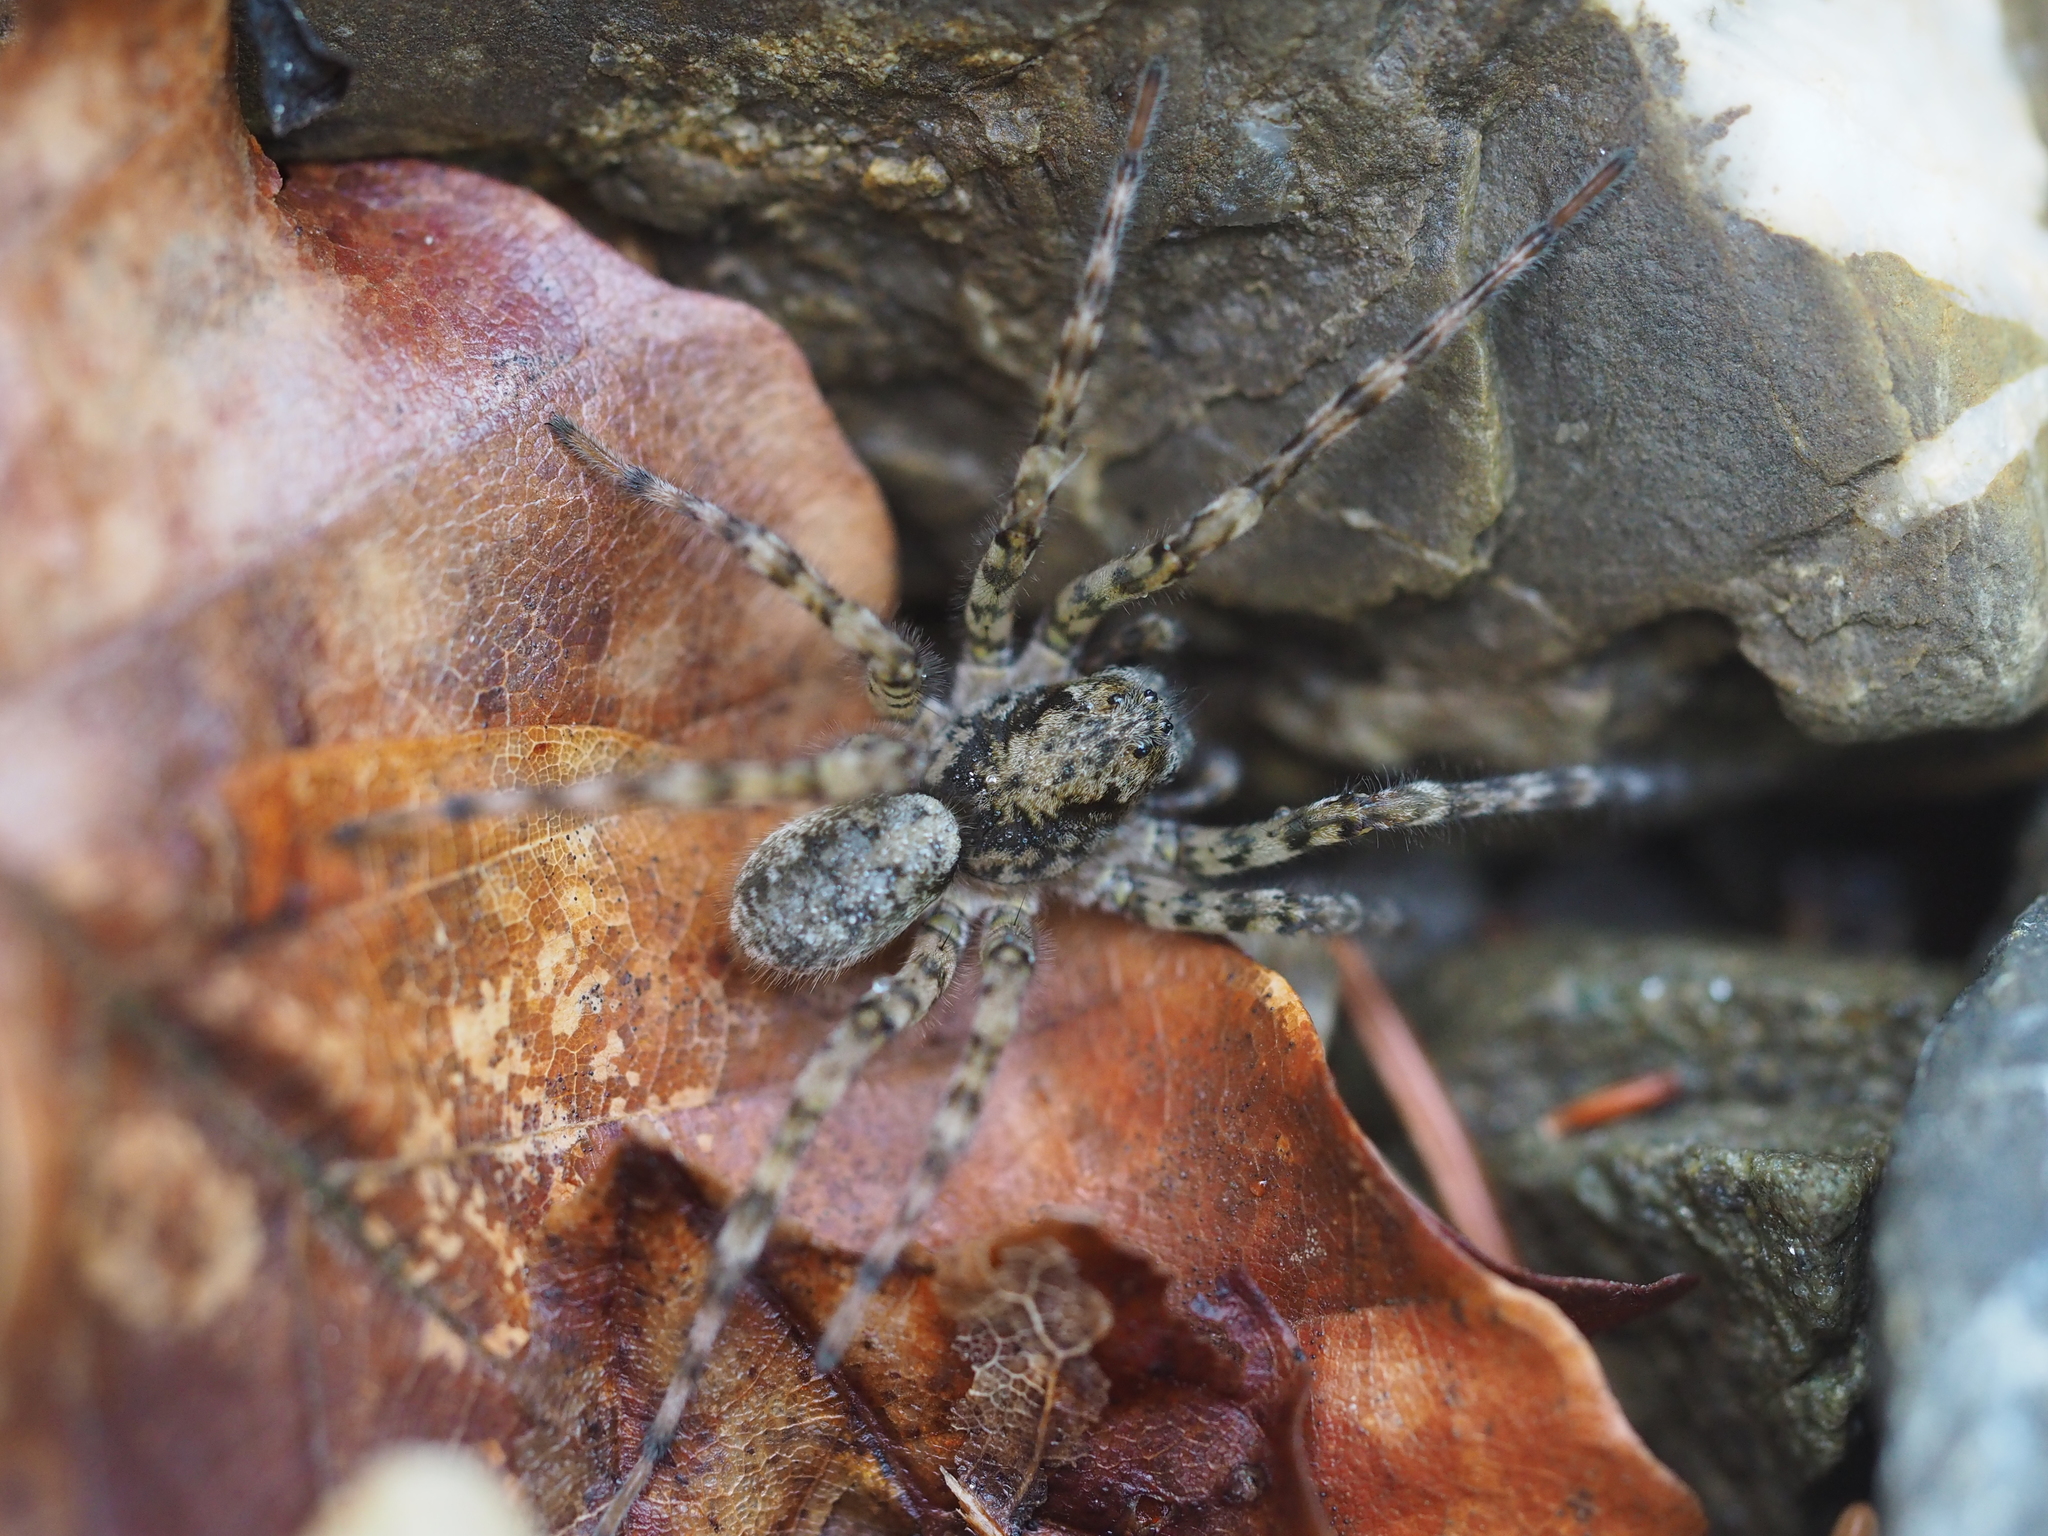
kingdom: Animalia
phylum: Arthropoda
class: Arachnida
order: Araneae
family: Lycosidae
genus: Arctosa
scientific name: Arctosa maculata
